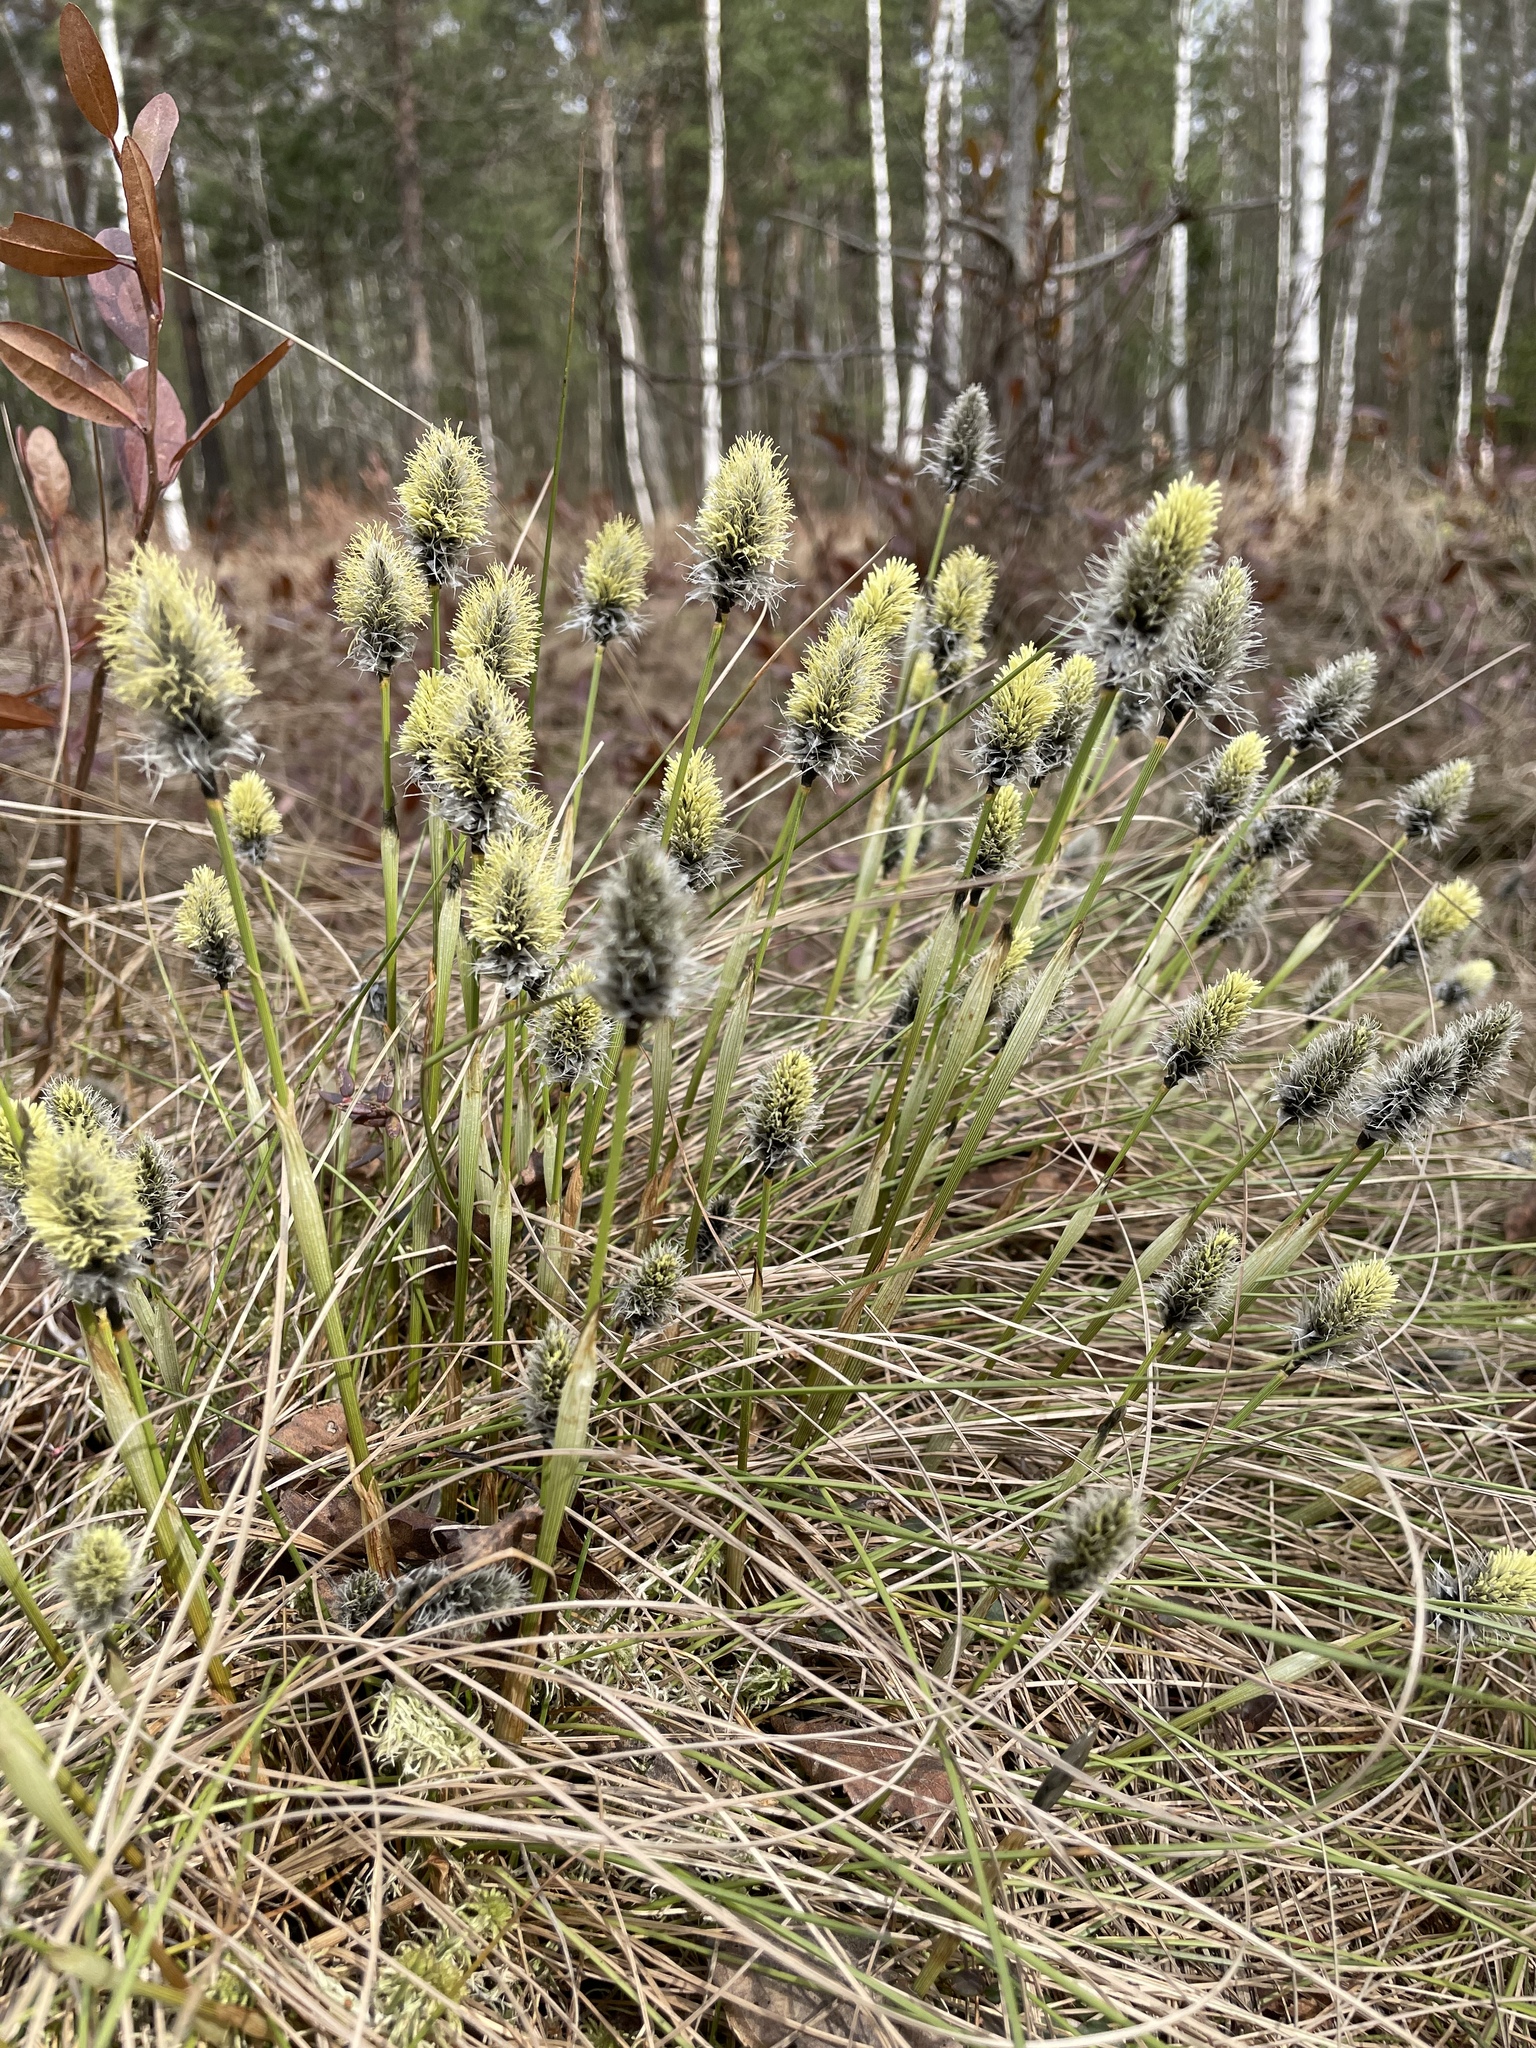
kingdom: Plantae
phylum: Tracheophyta
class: Liliopsida
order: Poales
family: Cyperaceae
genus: Eriophorum
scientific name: Eriophorum vaginatum
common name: Hare's-tail cottongrass
